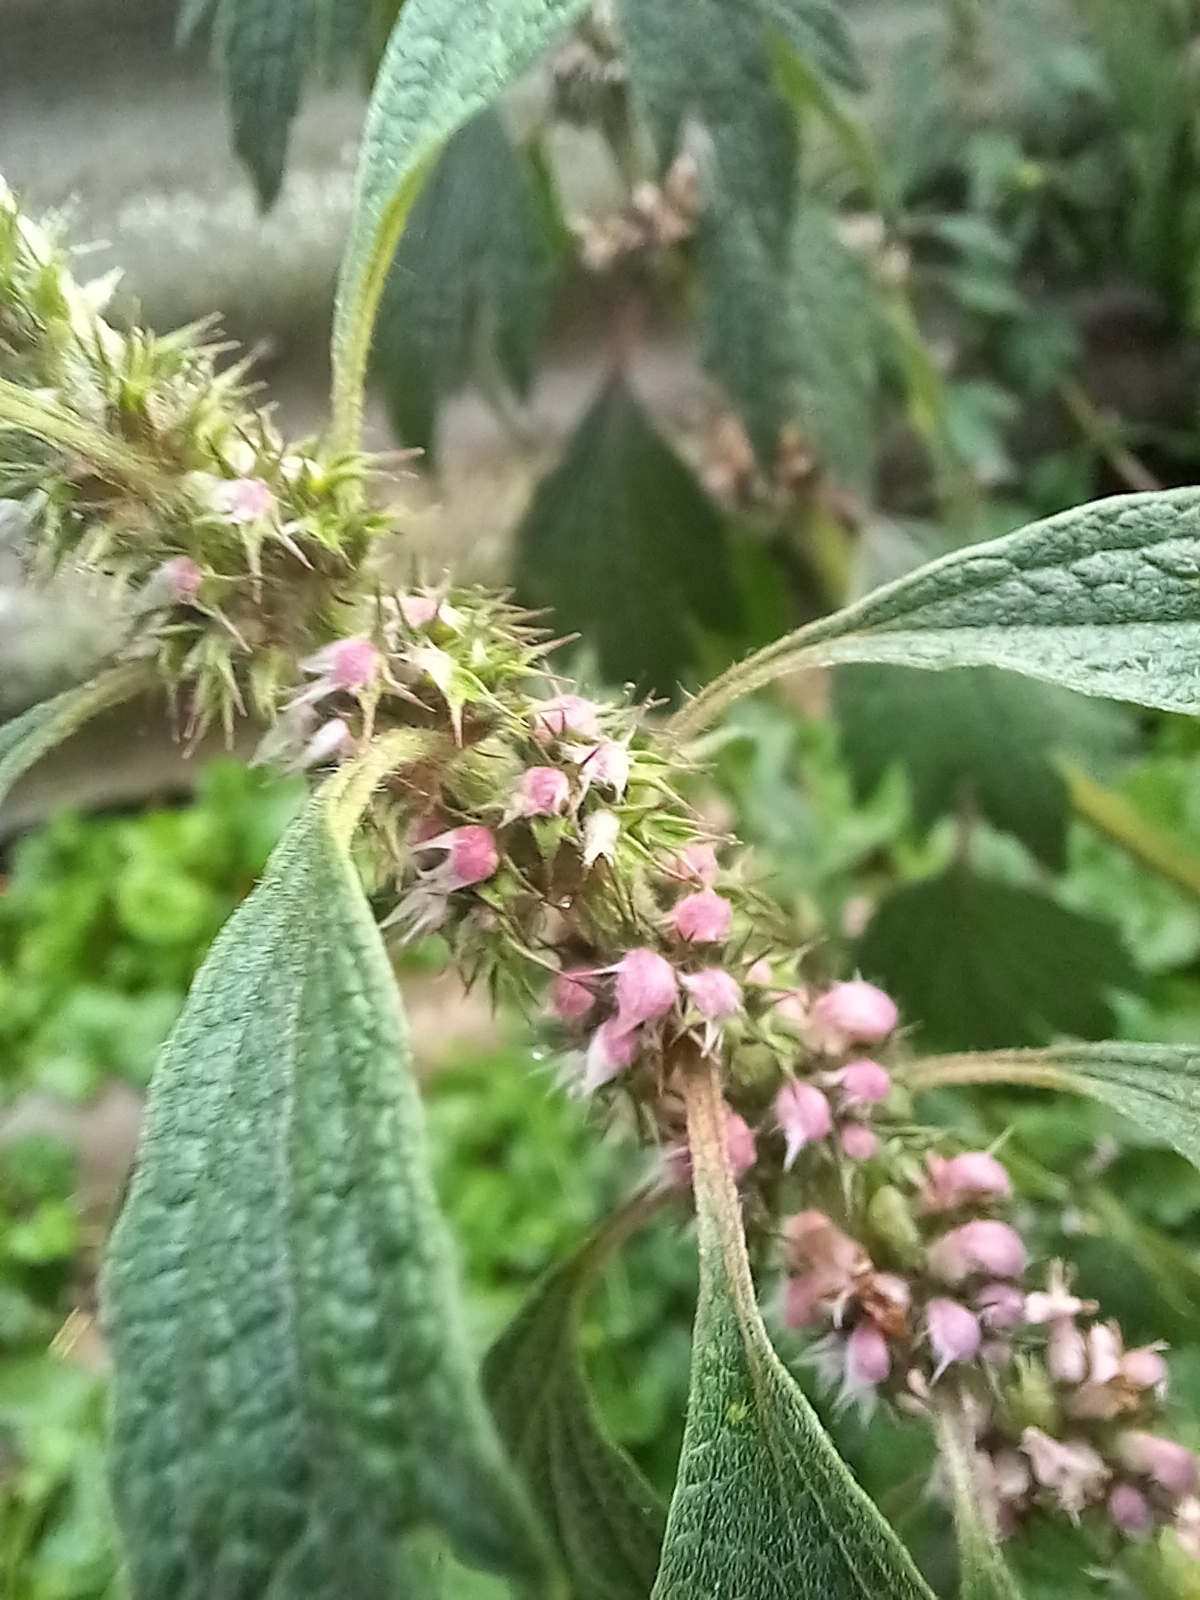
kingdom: Plantae
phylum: Tracheophyta
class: Magnoliopsida
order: Lamiales
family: Lamiaceae
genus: Leonurus
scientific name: Leonurus quinquelobatus
